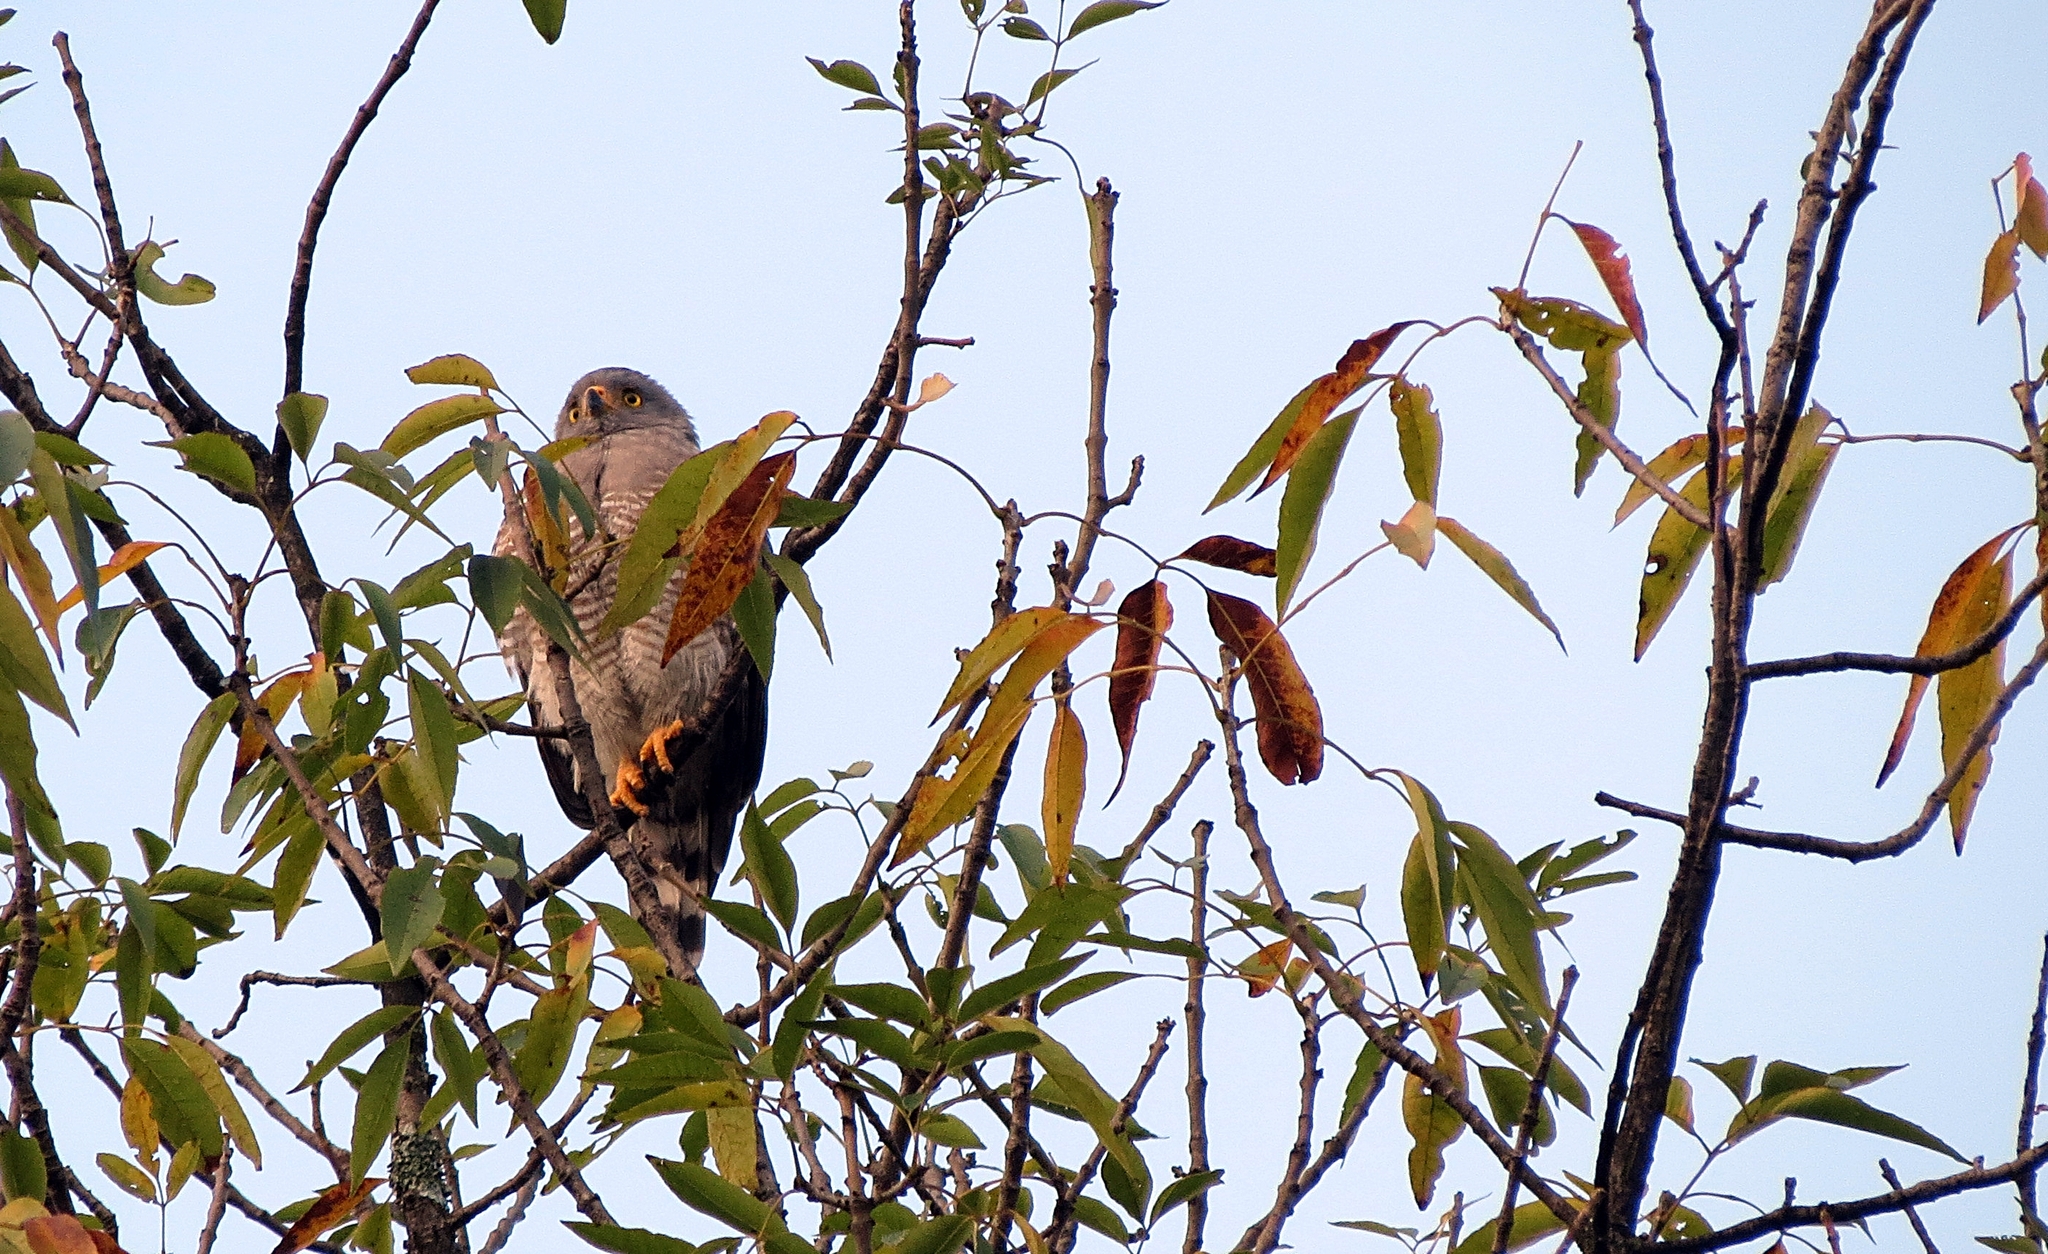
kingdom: Animalia
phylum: Chordata
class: Aves
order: Accipitriformes
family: Accipitridae
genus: Rupornis
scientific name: Rupornis magnirostris
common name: Roadside hawk
